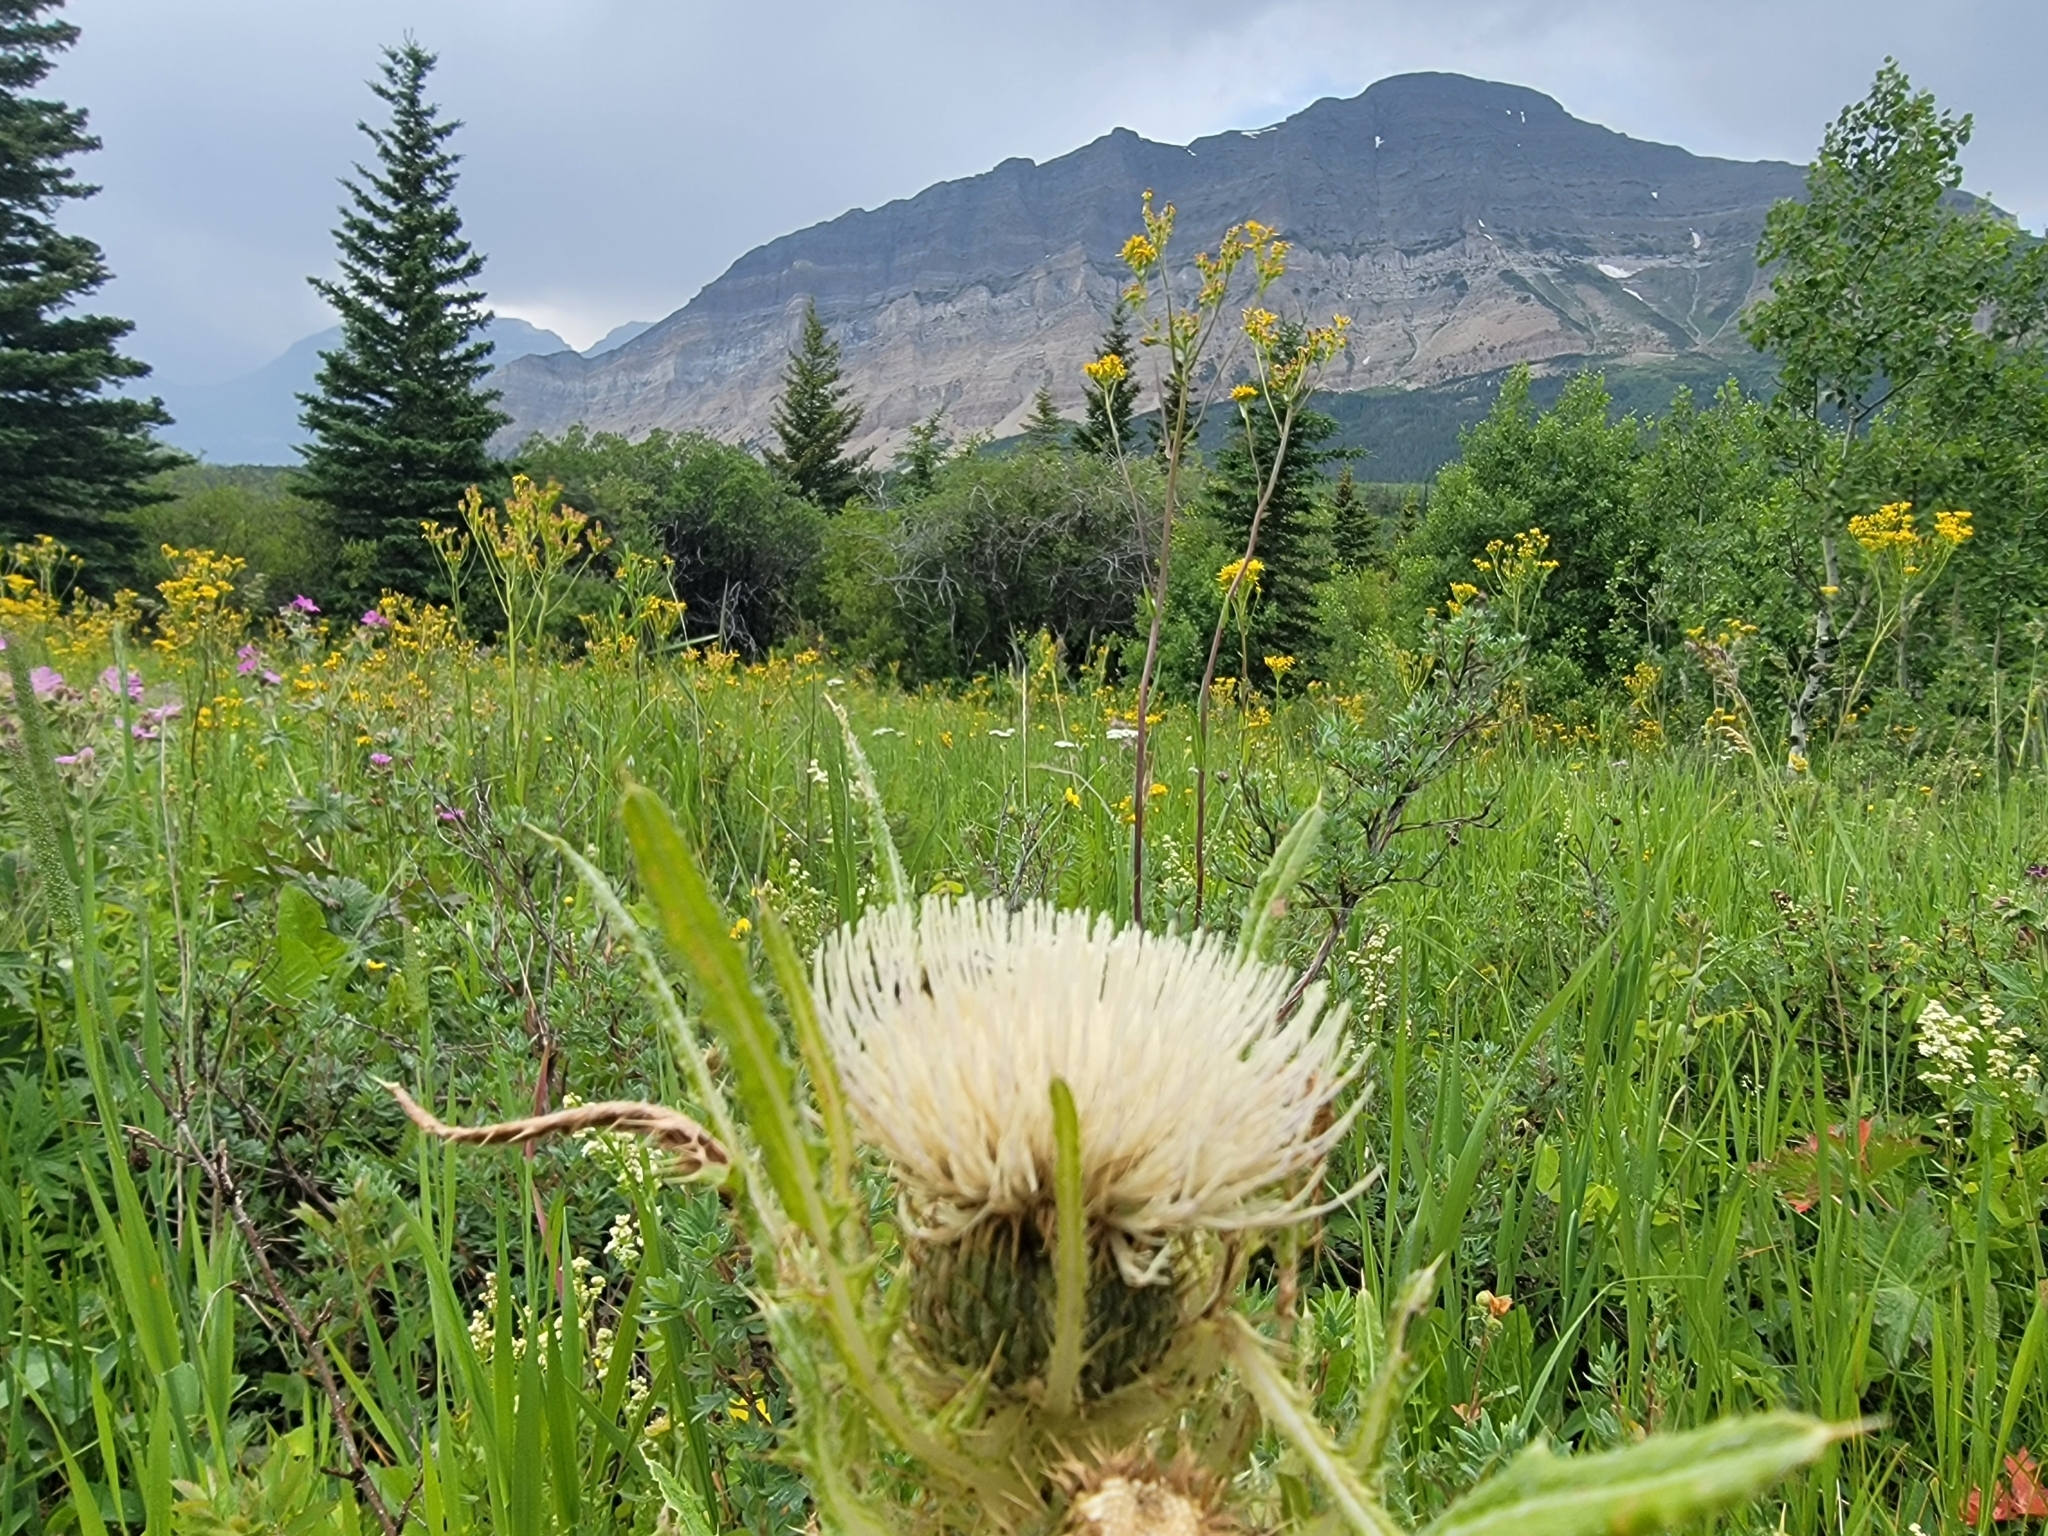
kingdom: Plantae
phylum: Tracheophyta
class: Magnoliopsida
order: Asterales
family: Asteraceae
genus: Cirsium
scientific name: Cirsium hookerianum
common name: Hooker's thistle
